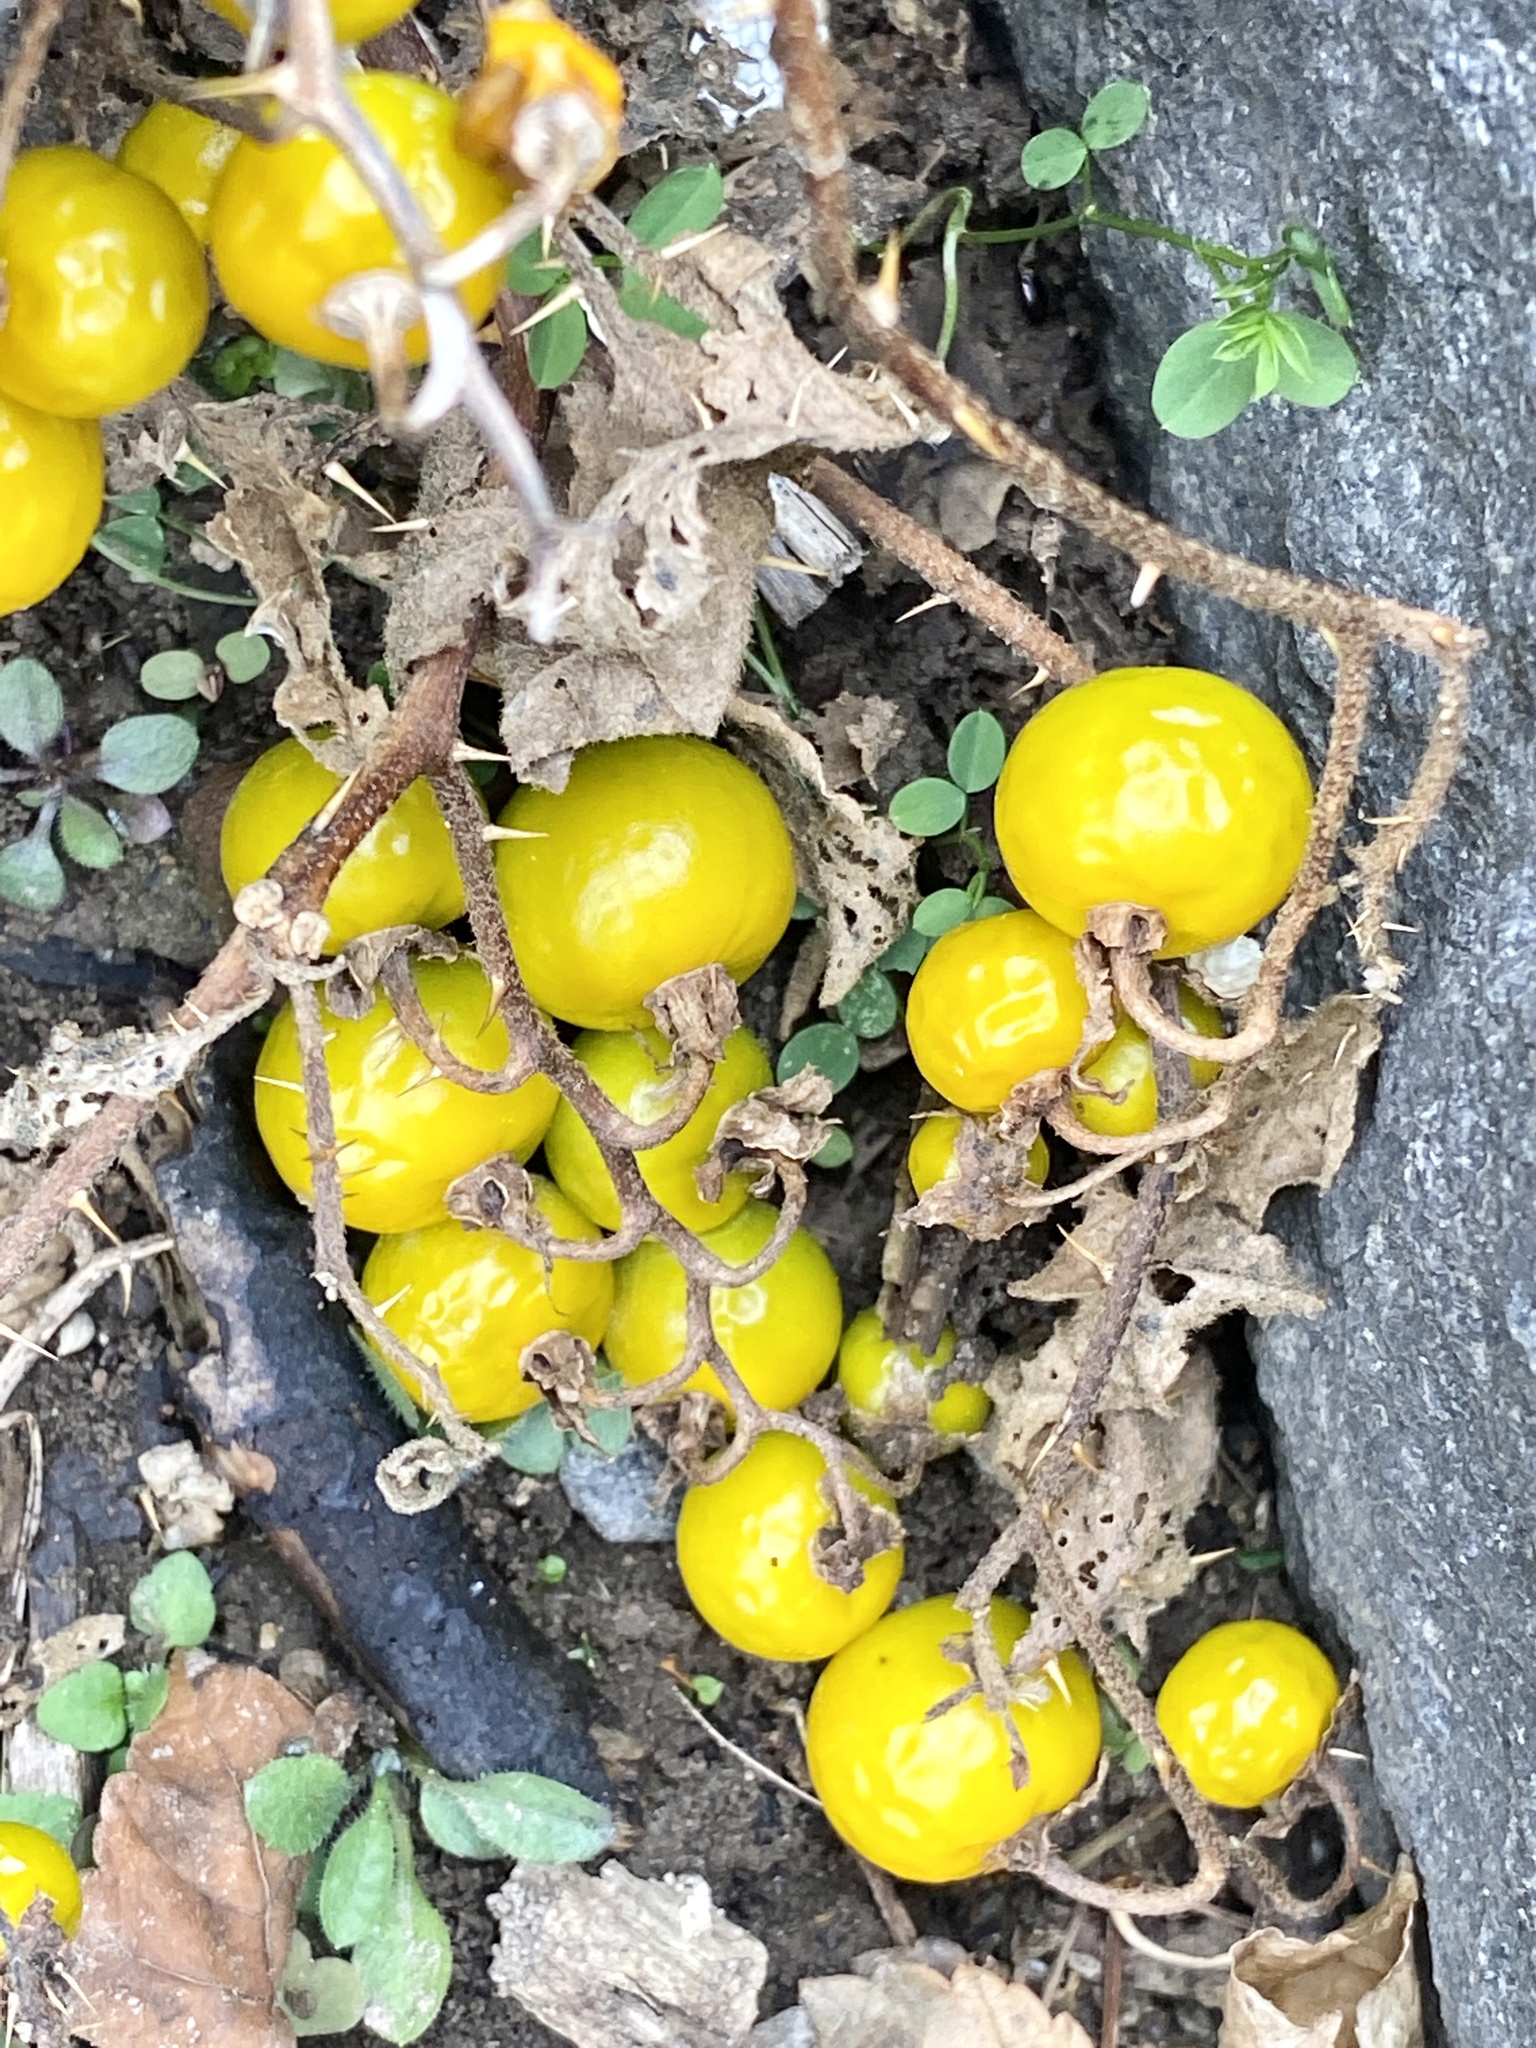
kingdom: Plantae
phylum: Tracheophyta
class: Magnoliopsida
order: Solanales
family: Solanaceae
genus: Solanum
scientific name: Solanum carolinense
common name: Horse-nettle
